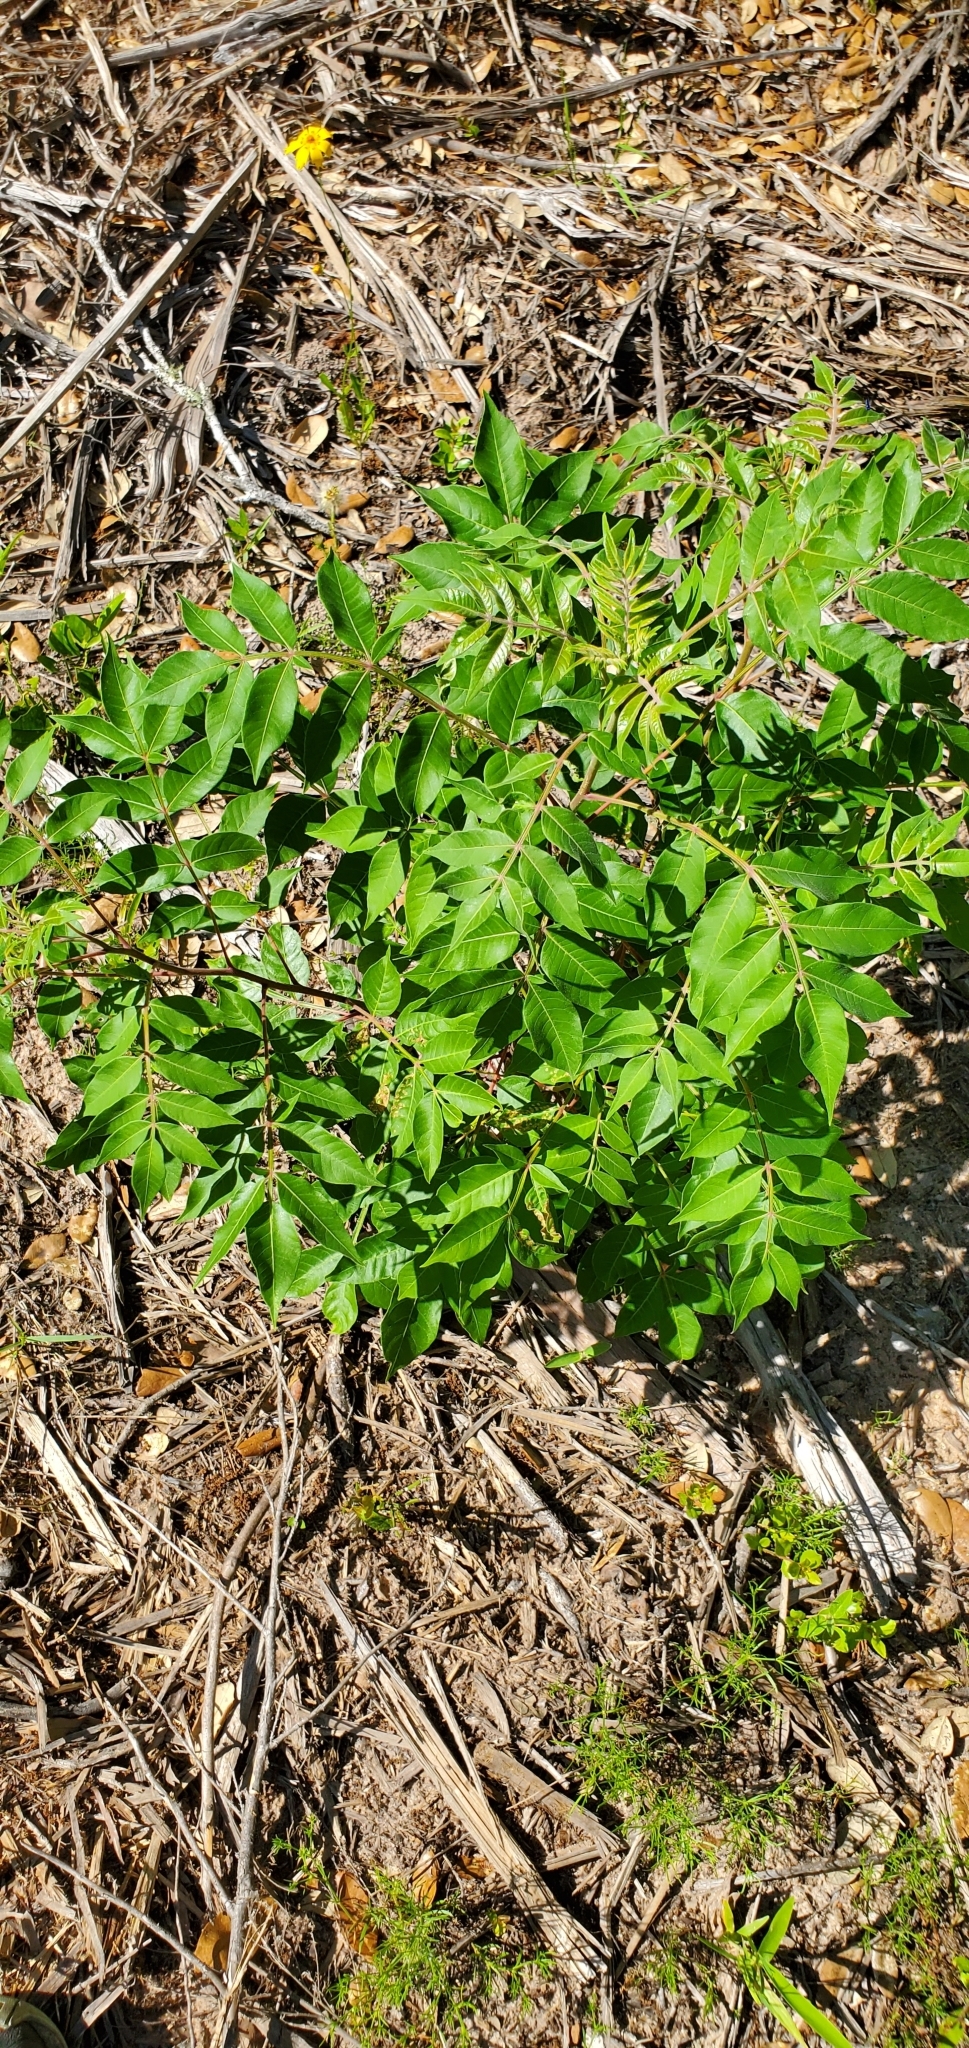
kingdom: Plantae
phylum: Tracheophyta
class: Magnoliopsida
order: Sapindales
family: Anacardiaceae
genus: Rhus
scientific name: Rhus copallina
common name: Shining sumac
